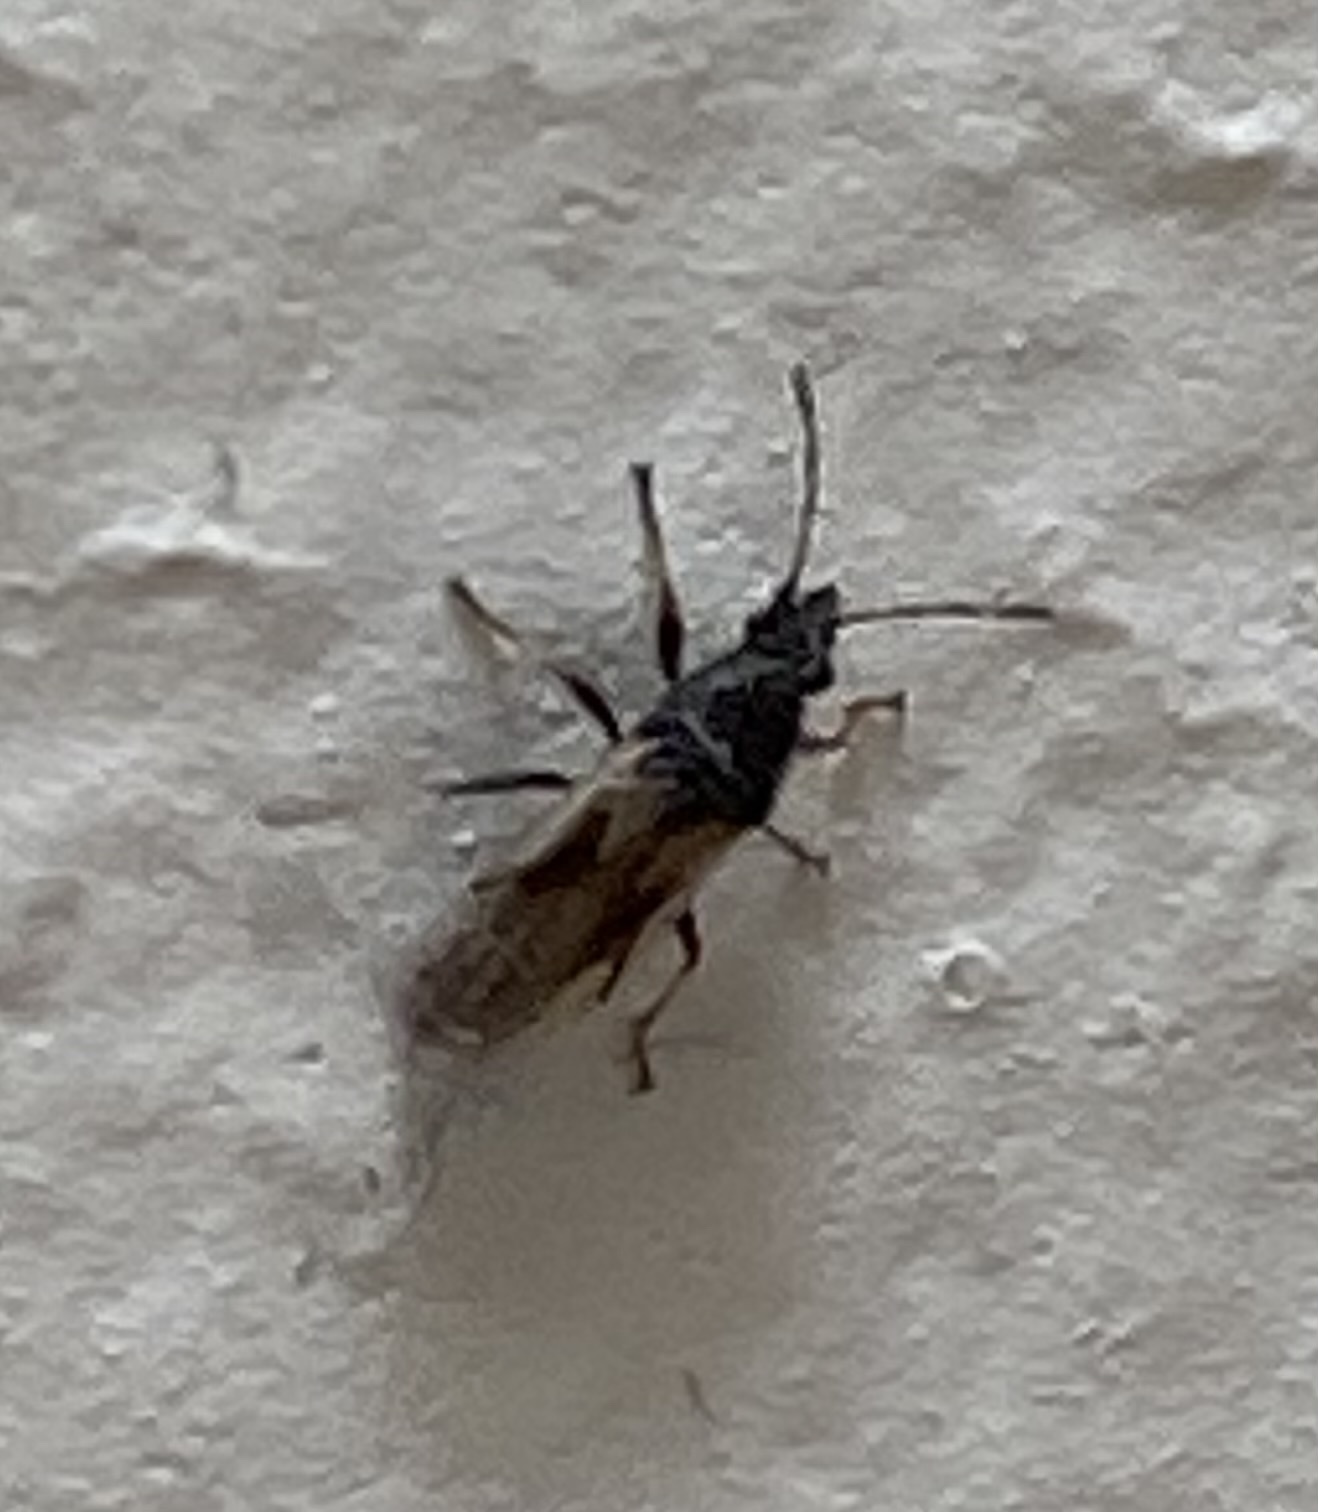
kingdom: Animalia
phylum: Arthropoda
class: Insecta
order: Hemiptera
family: Oxycarenidae
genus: Metopoplax
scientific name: Metopoplax ditomoides
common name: Seed bug
